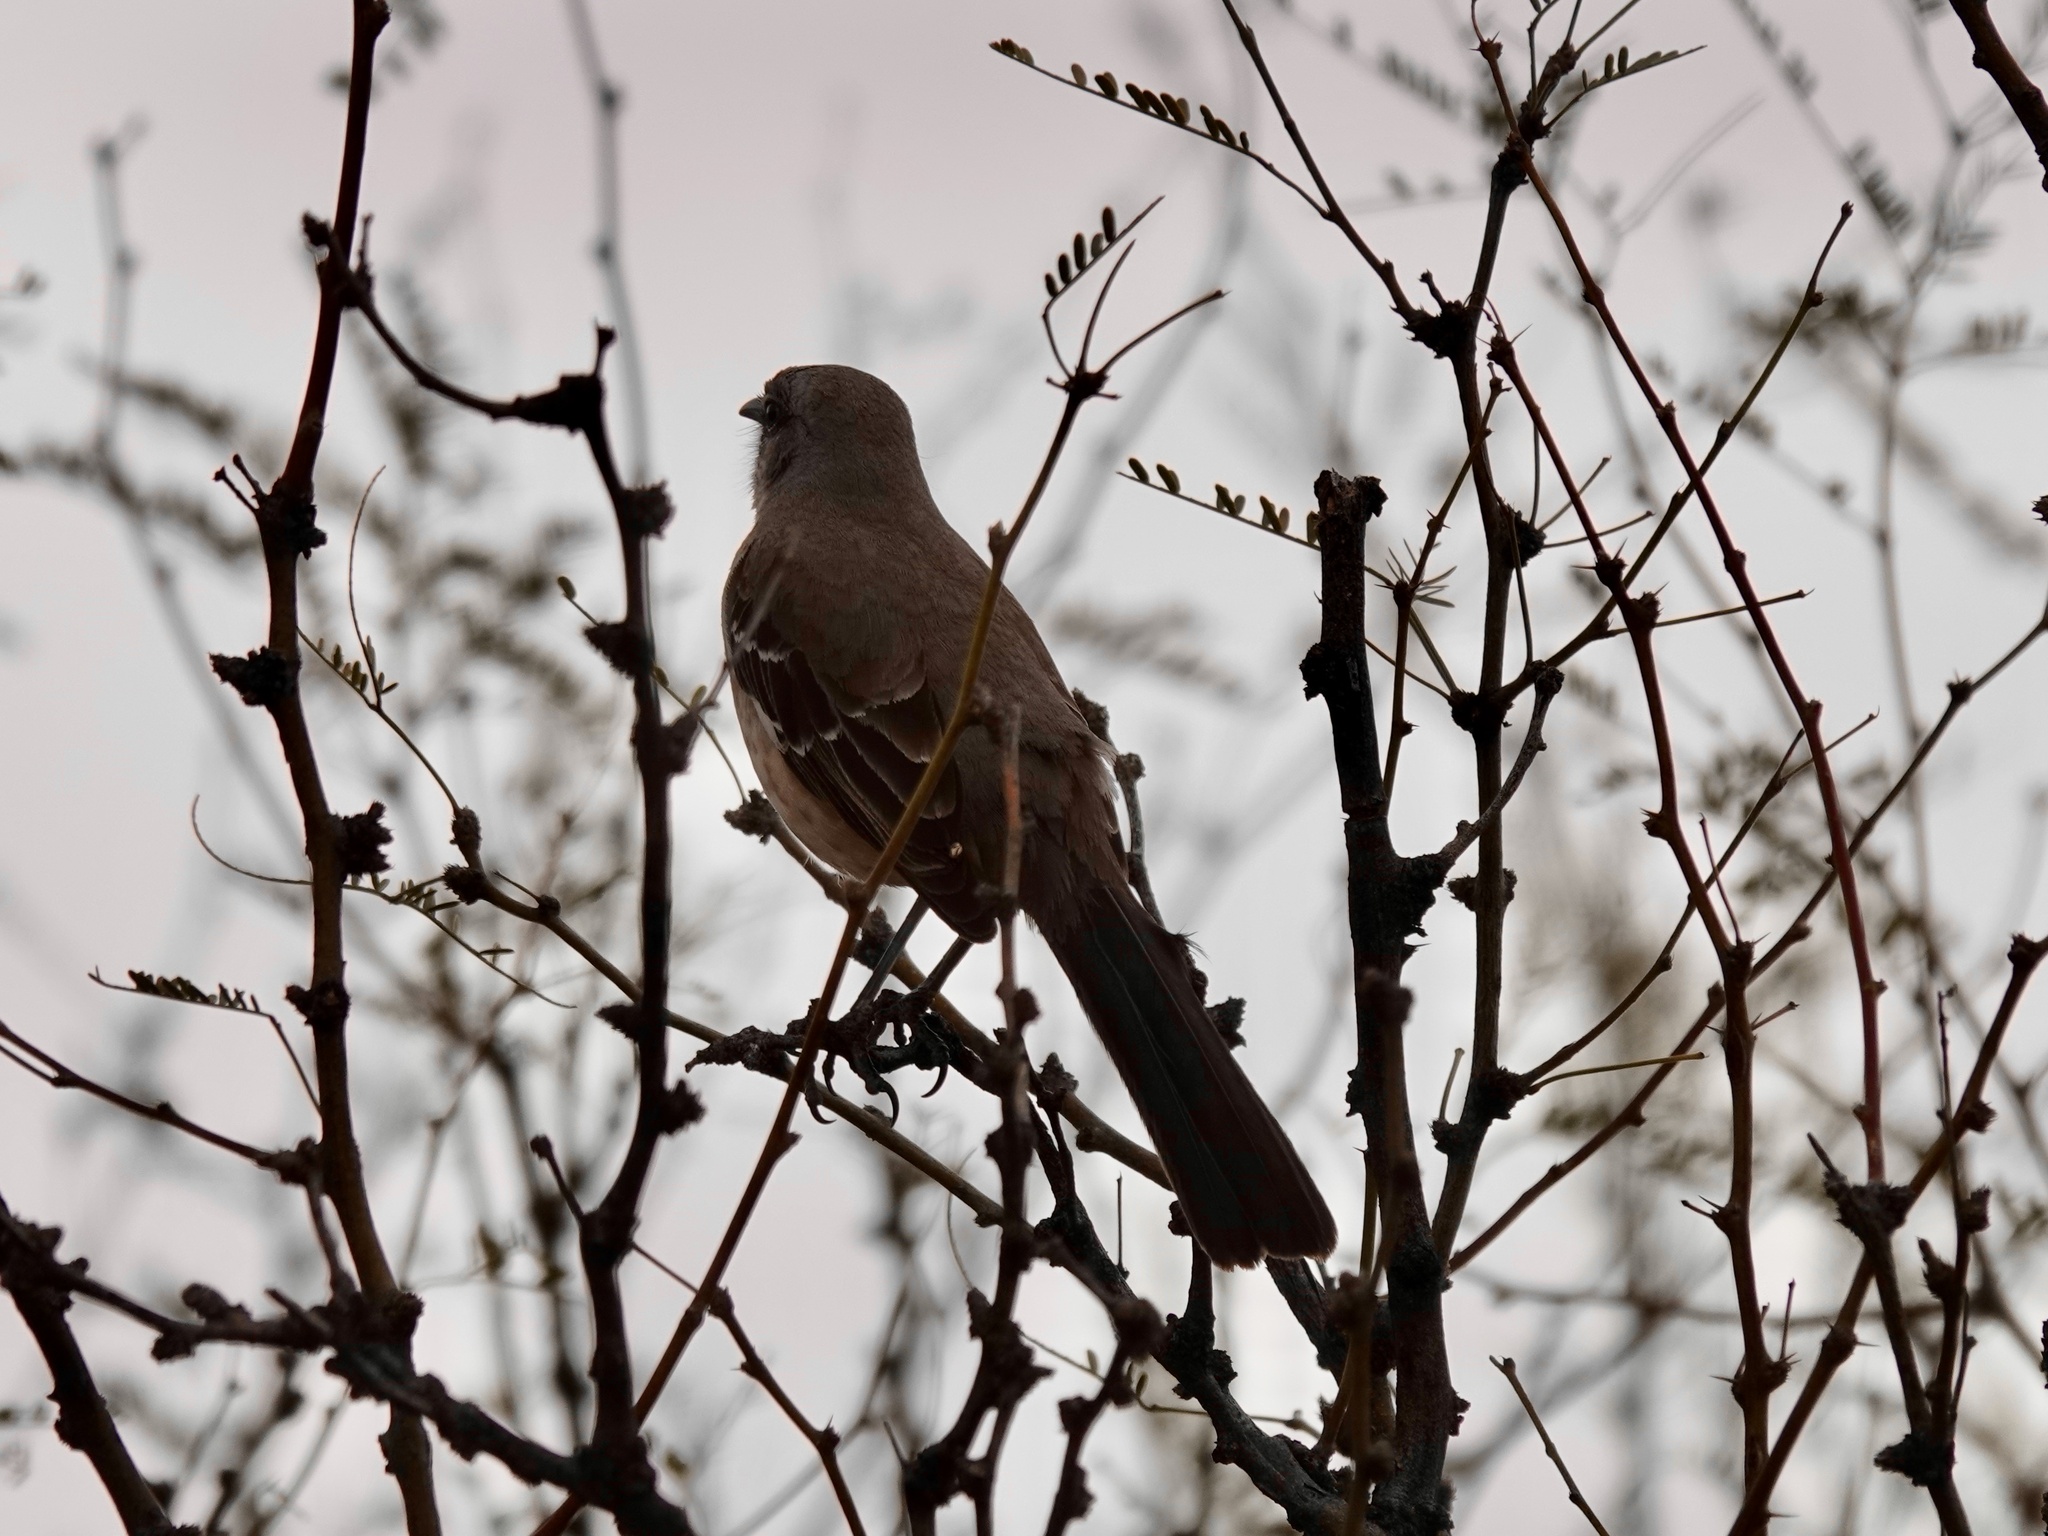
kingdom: Animalia
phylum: Chordata
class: Aves
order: Passeriformes
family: Mimidae
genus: Mimus
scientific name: Mimus polyglottos
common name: Northern mockingbird
